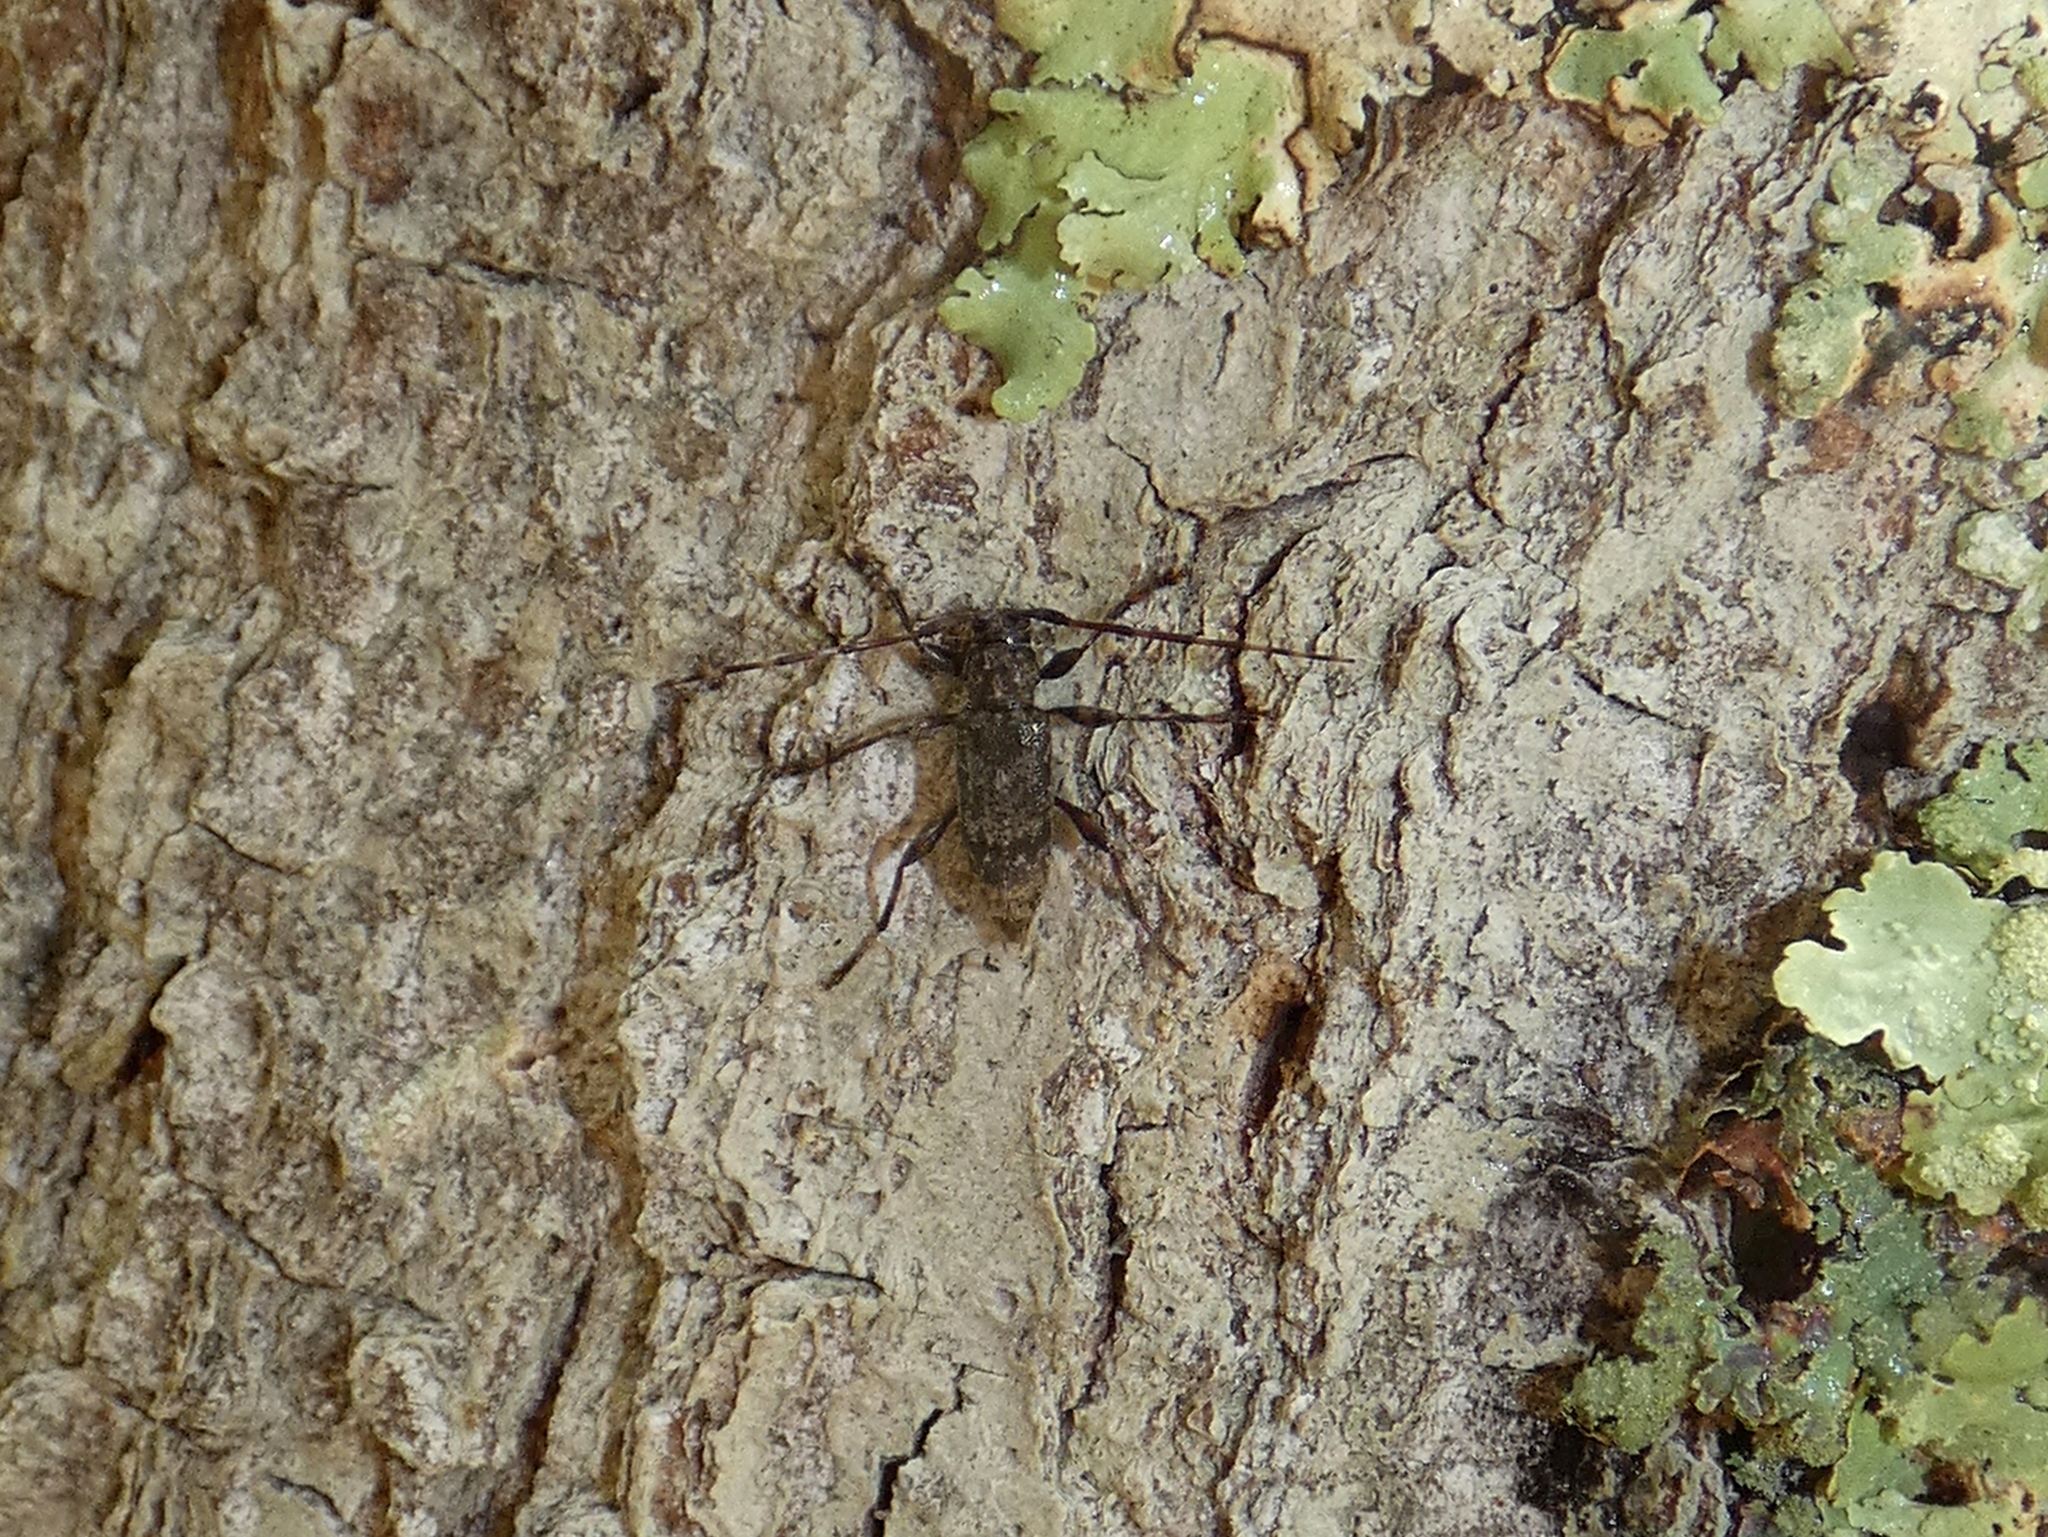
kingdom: Animalia
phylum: Arthropoda
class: Insecta
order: Coleoptera
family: Cerambycidae
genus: Graphisurus
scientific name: Graphisurus fasciatus
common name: Banded graphisurus
